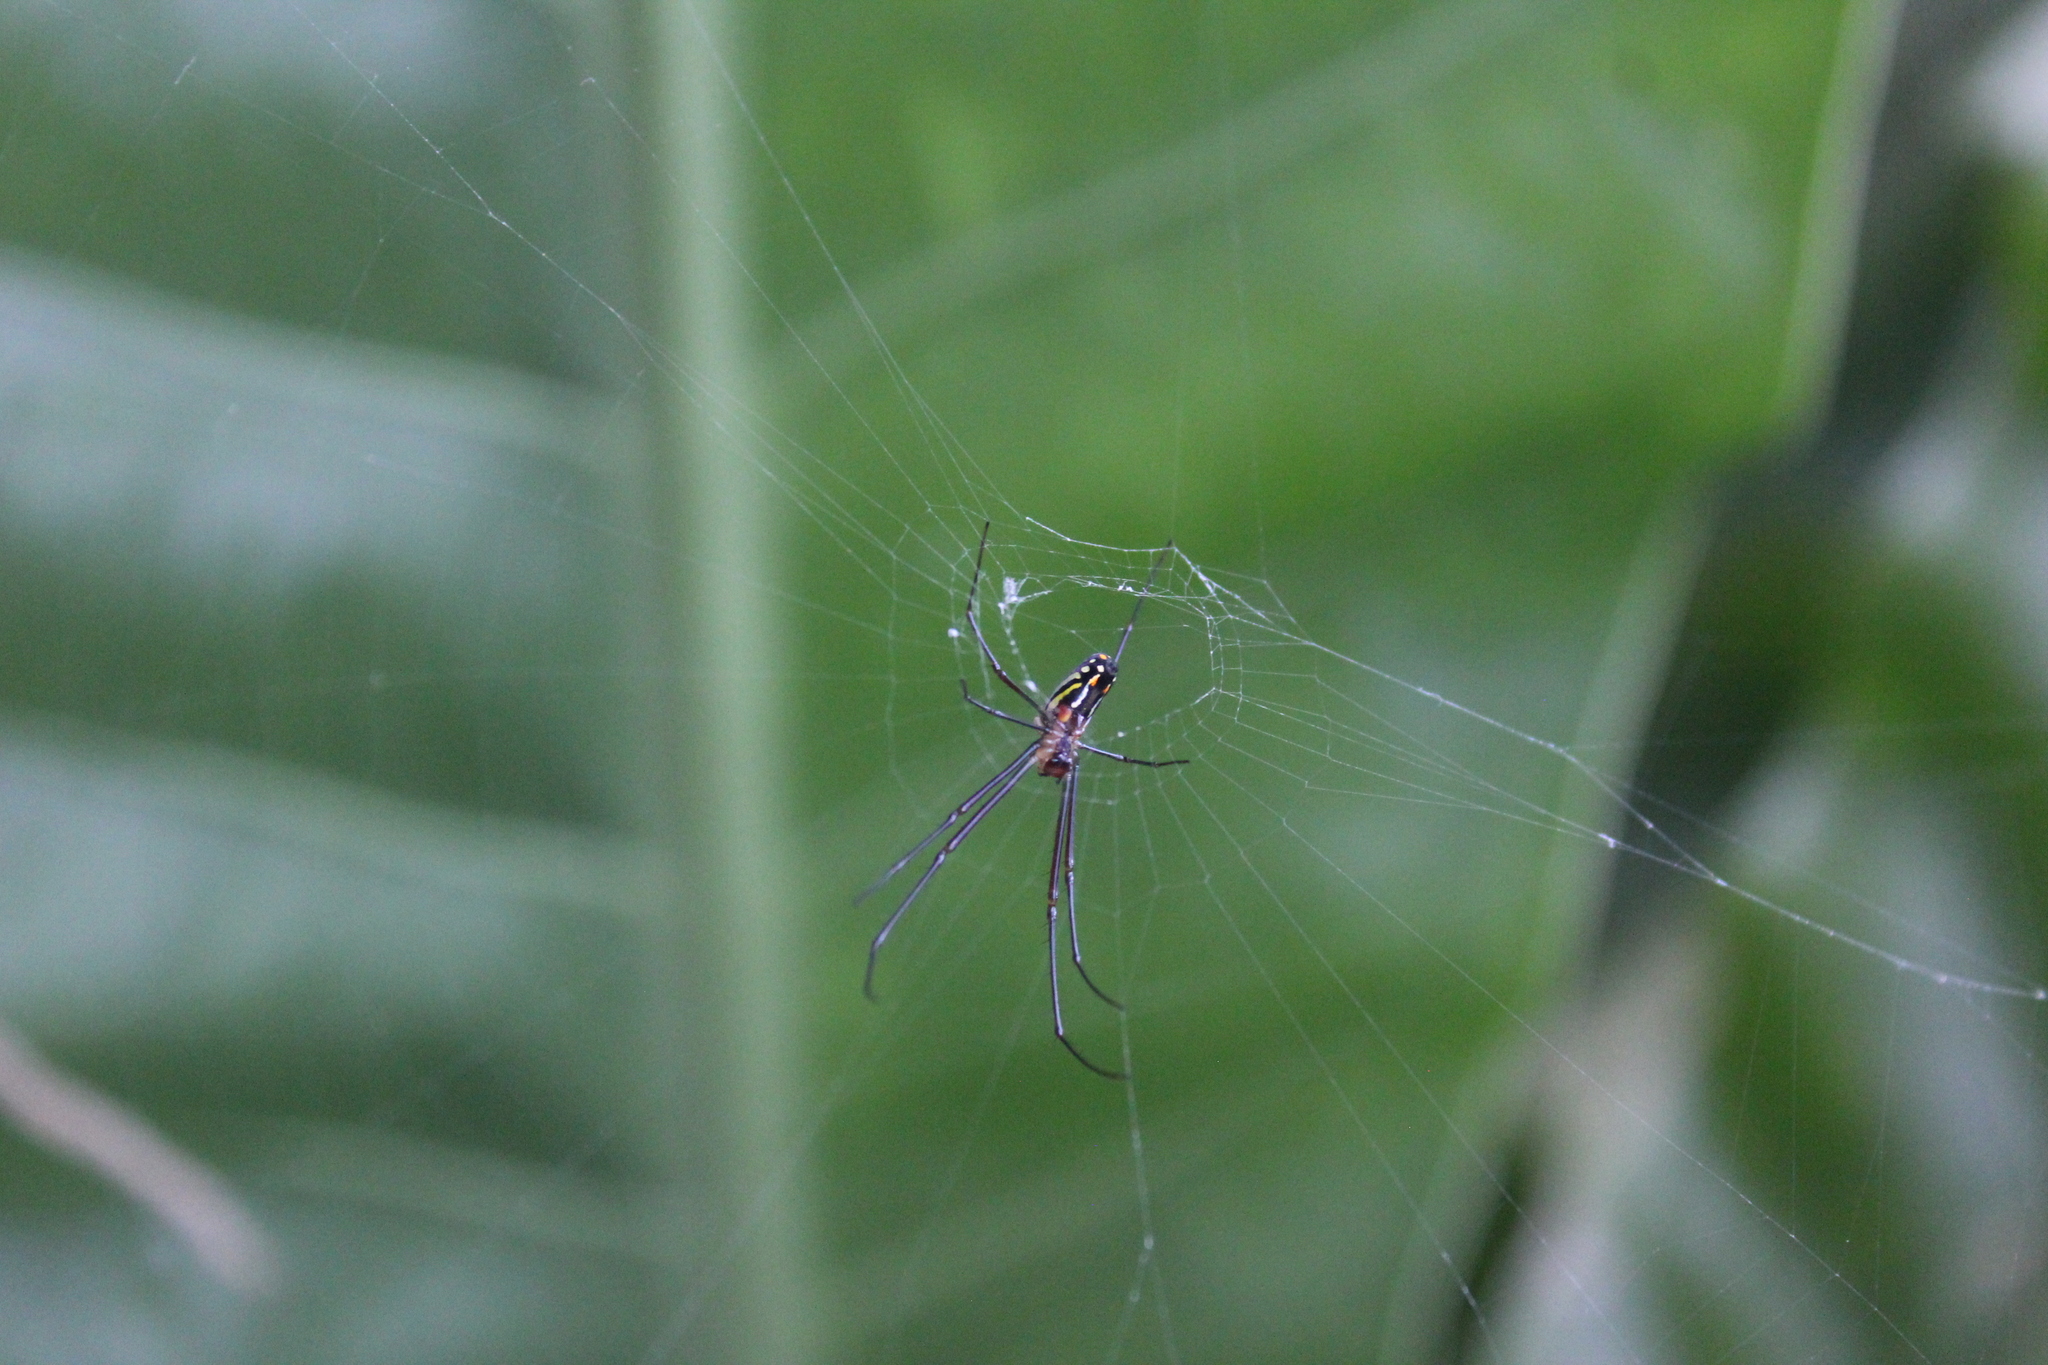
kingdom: Animalia
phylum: Arthropoda
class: Arachnida
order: Araneae
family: Tetragnathidae
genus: Leucauge
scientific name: Leucauge argyra
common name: Longjawed orb weavers
